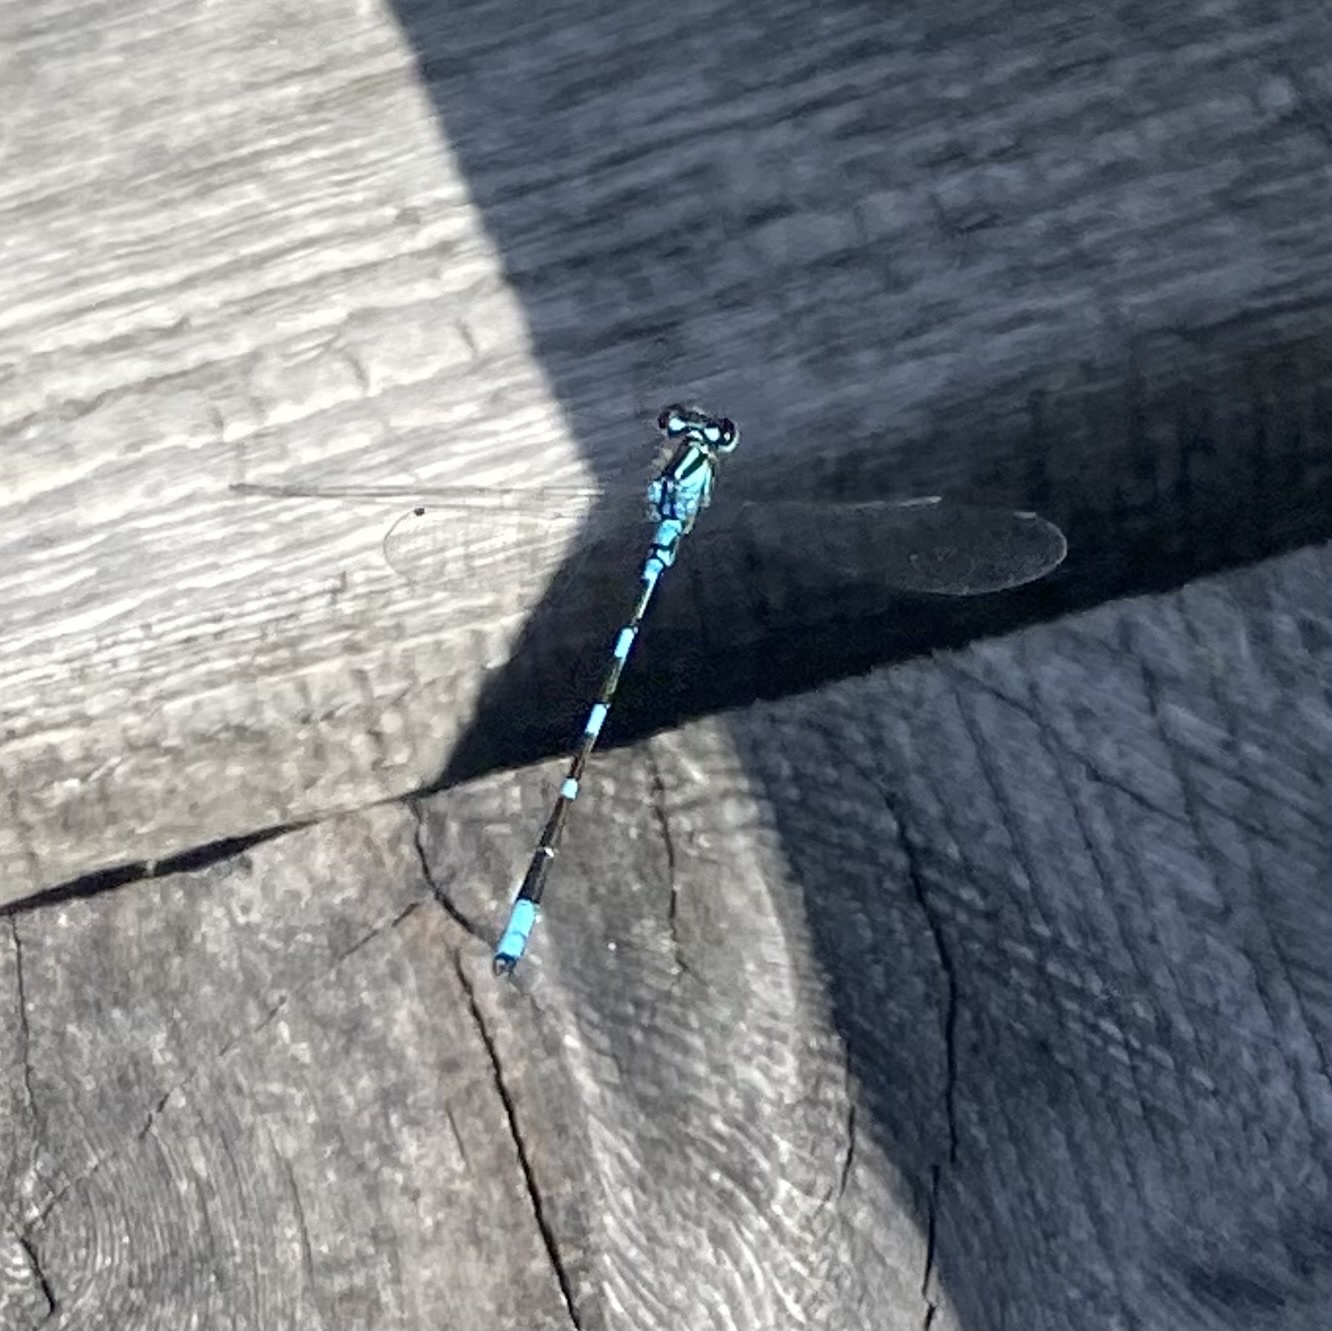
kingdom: Animalia
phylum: Arthropoda
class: Insecta
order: Odonata
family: Coenagrionidae
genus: Coenagrion
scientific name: Coenagrion johanssoni
